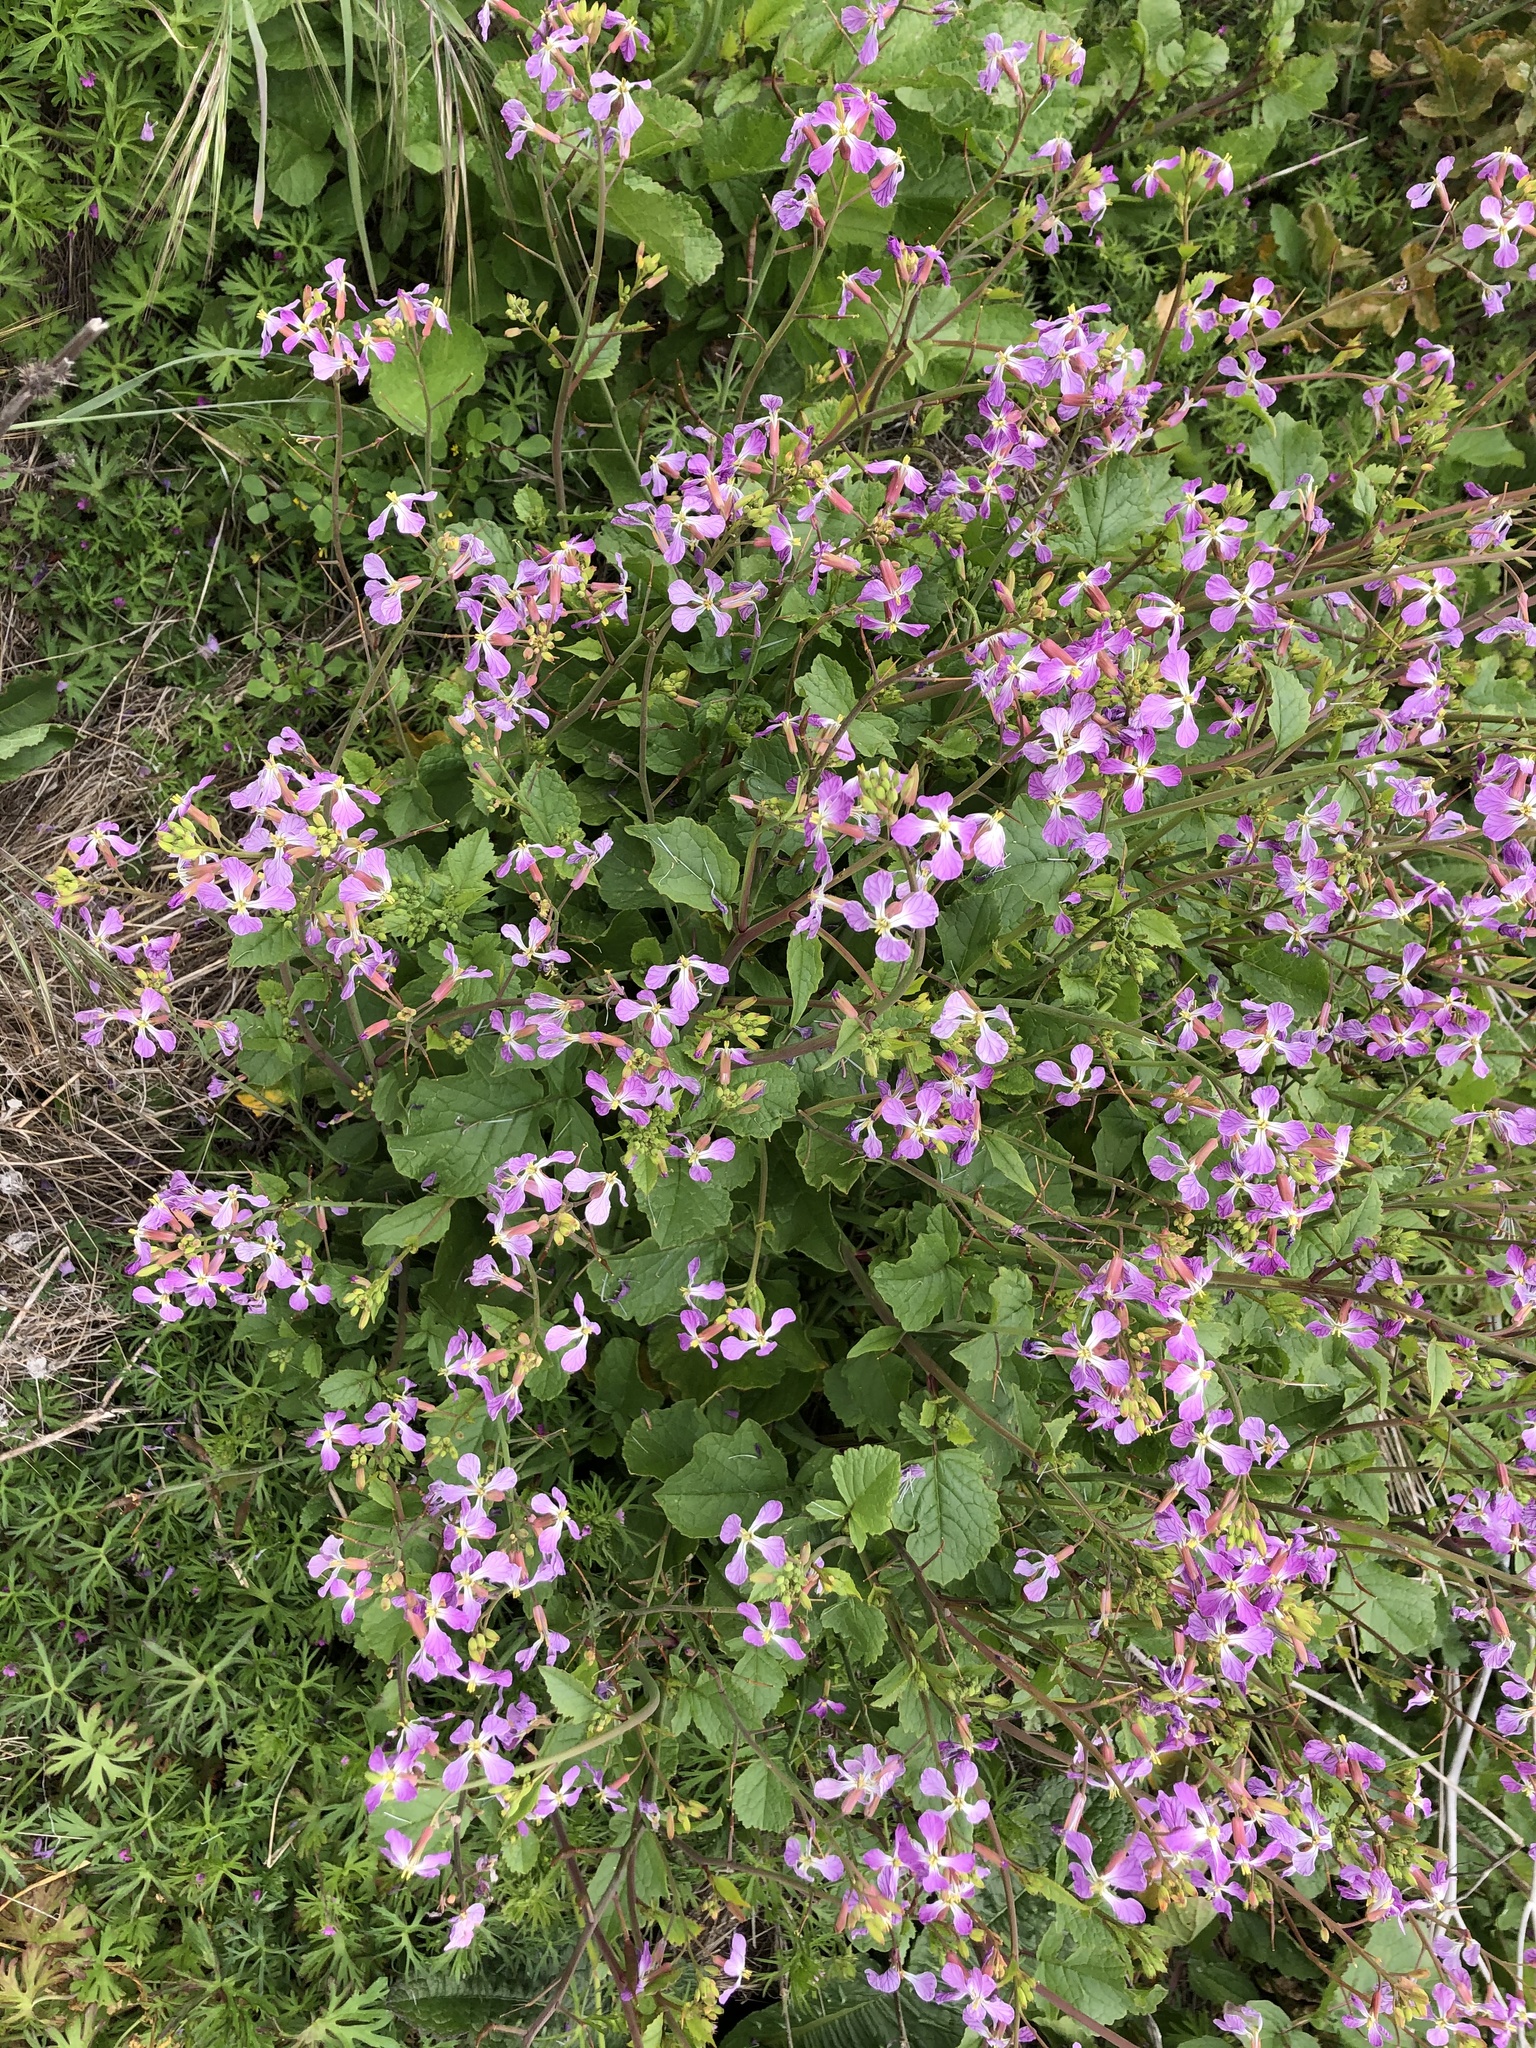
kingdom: Plantae
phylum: Tracheophyta
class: Magnoliopsida
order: Brassicales
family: Brassicaceae
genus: Raphanus
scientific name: Raphanus sativus
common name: Cultivated radish
